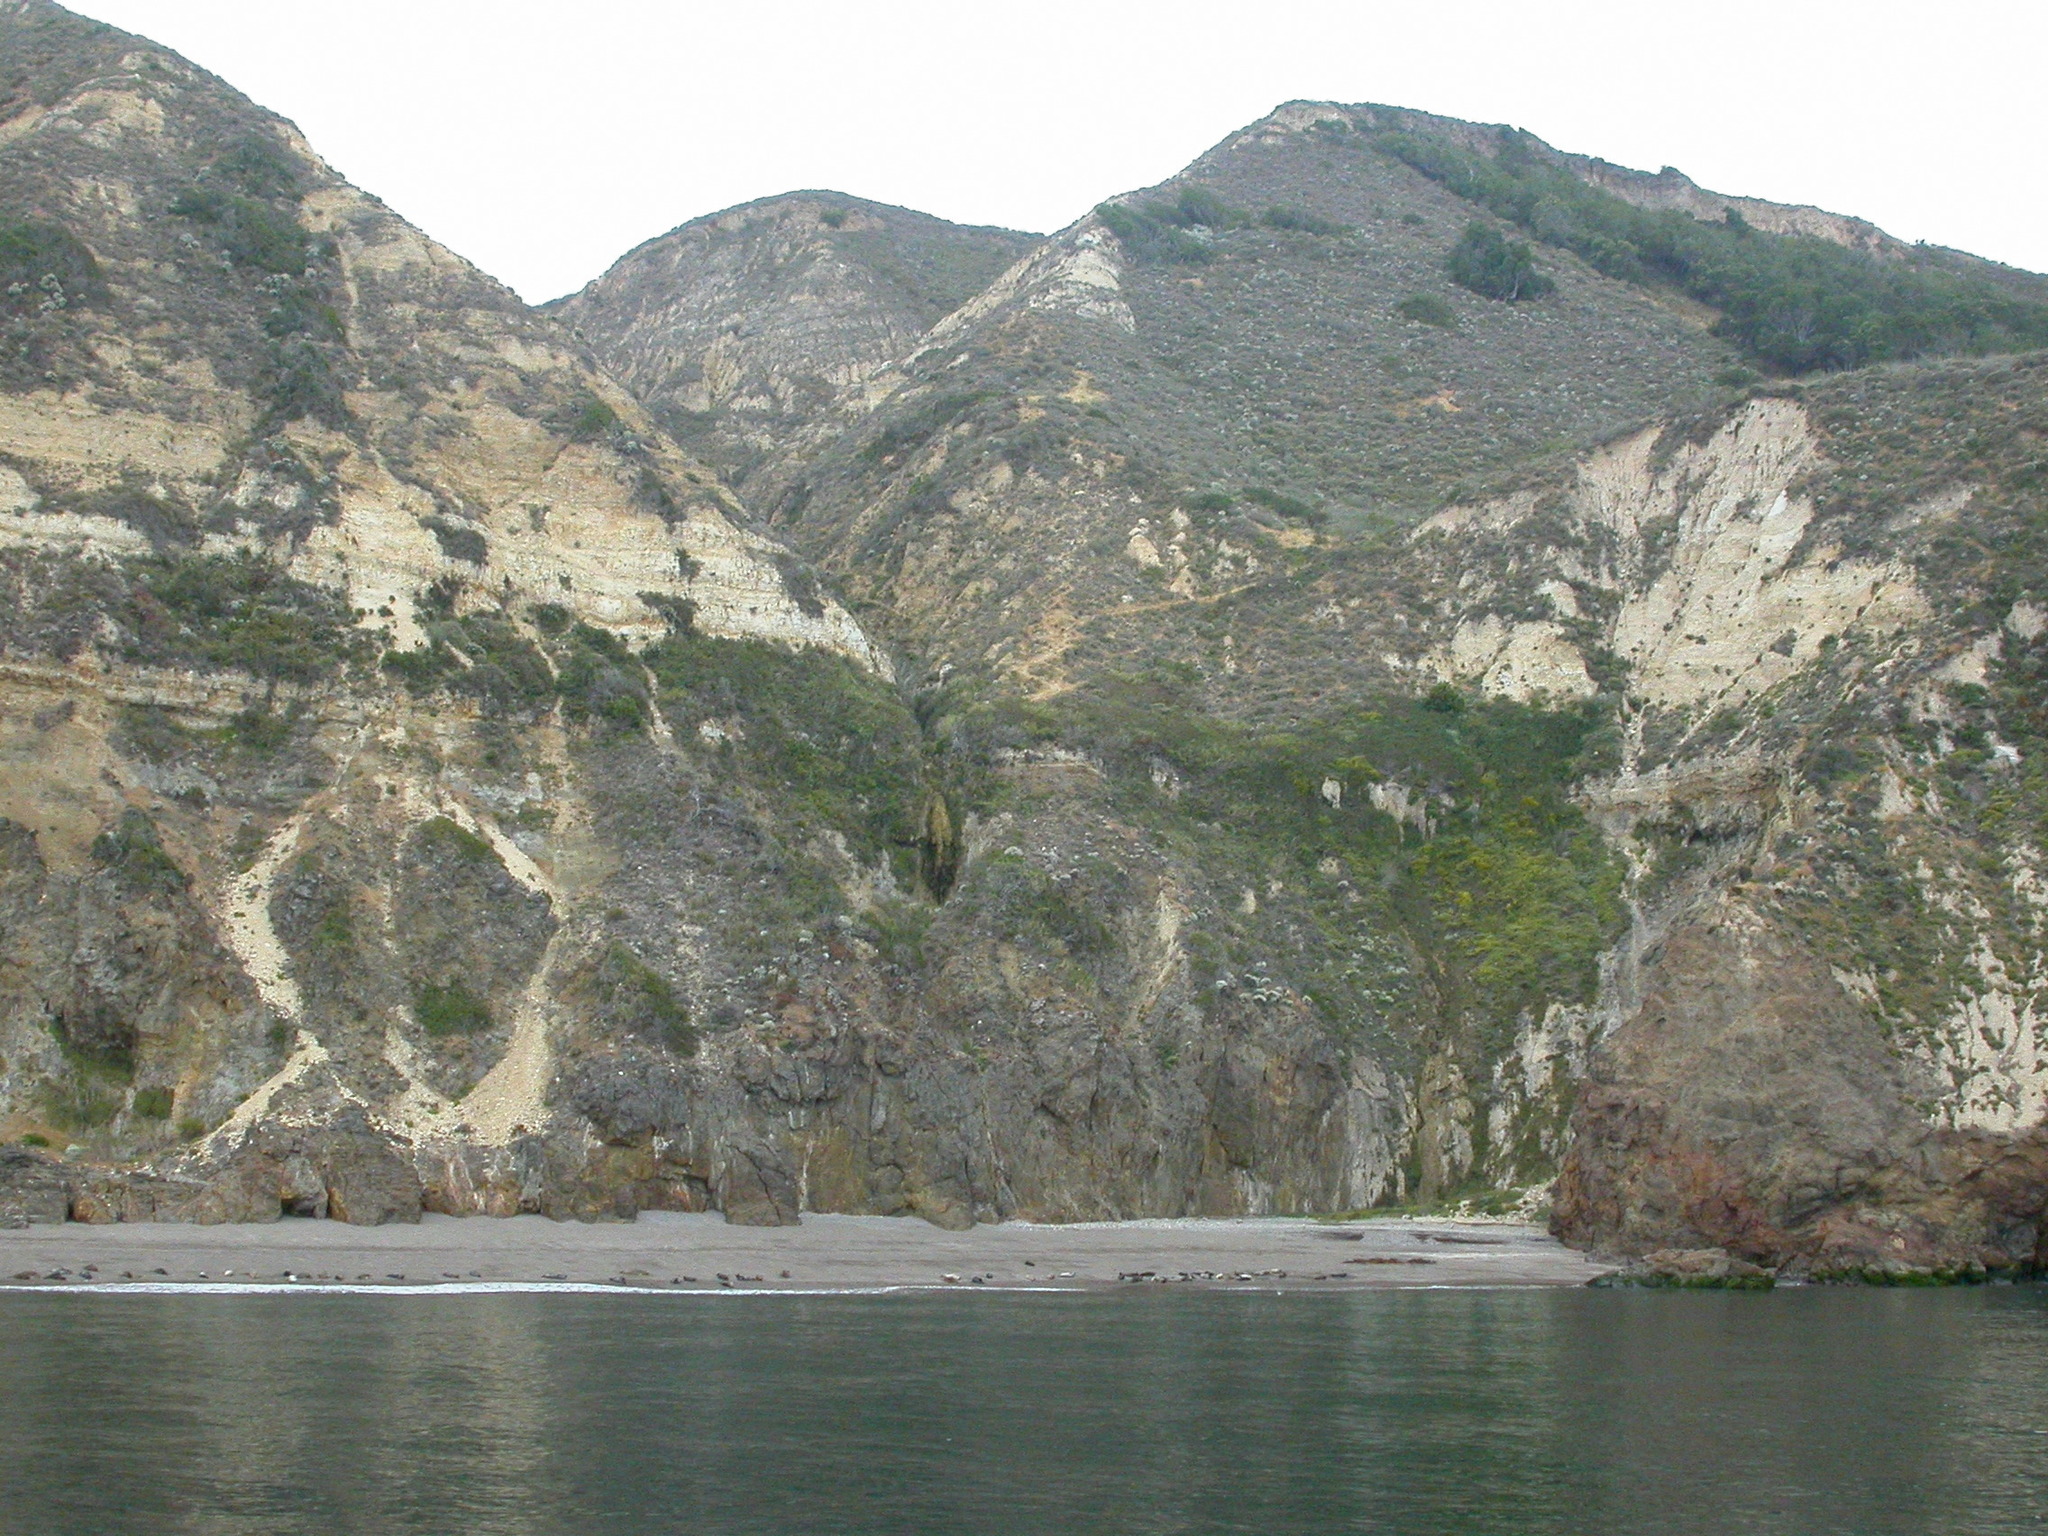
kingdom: Animalia
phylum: Chordata
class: Mammalia
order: Carnivora
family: Phocidae
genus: Phoca
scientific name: Phoca vitulina
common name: Harbor seal
